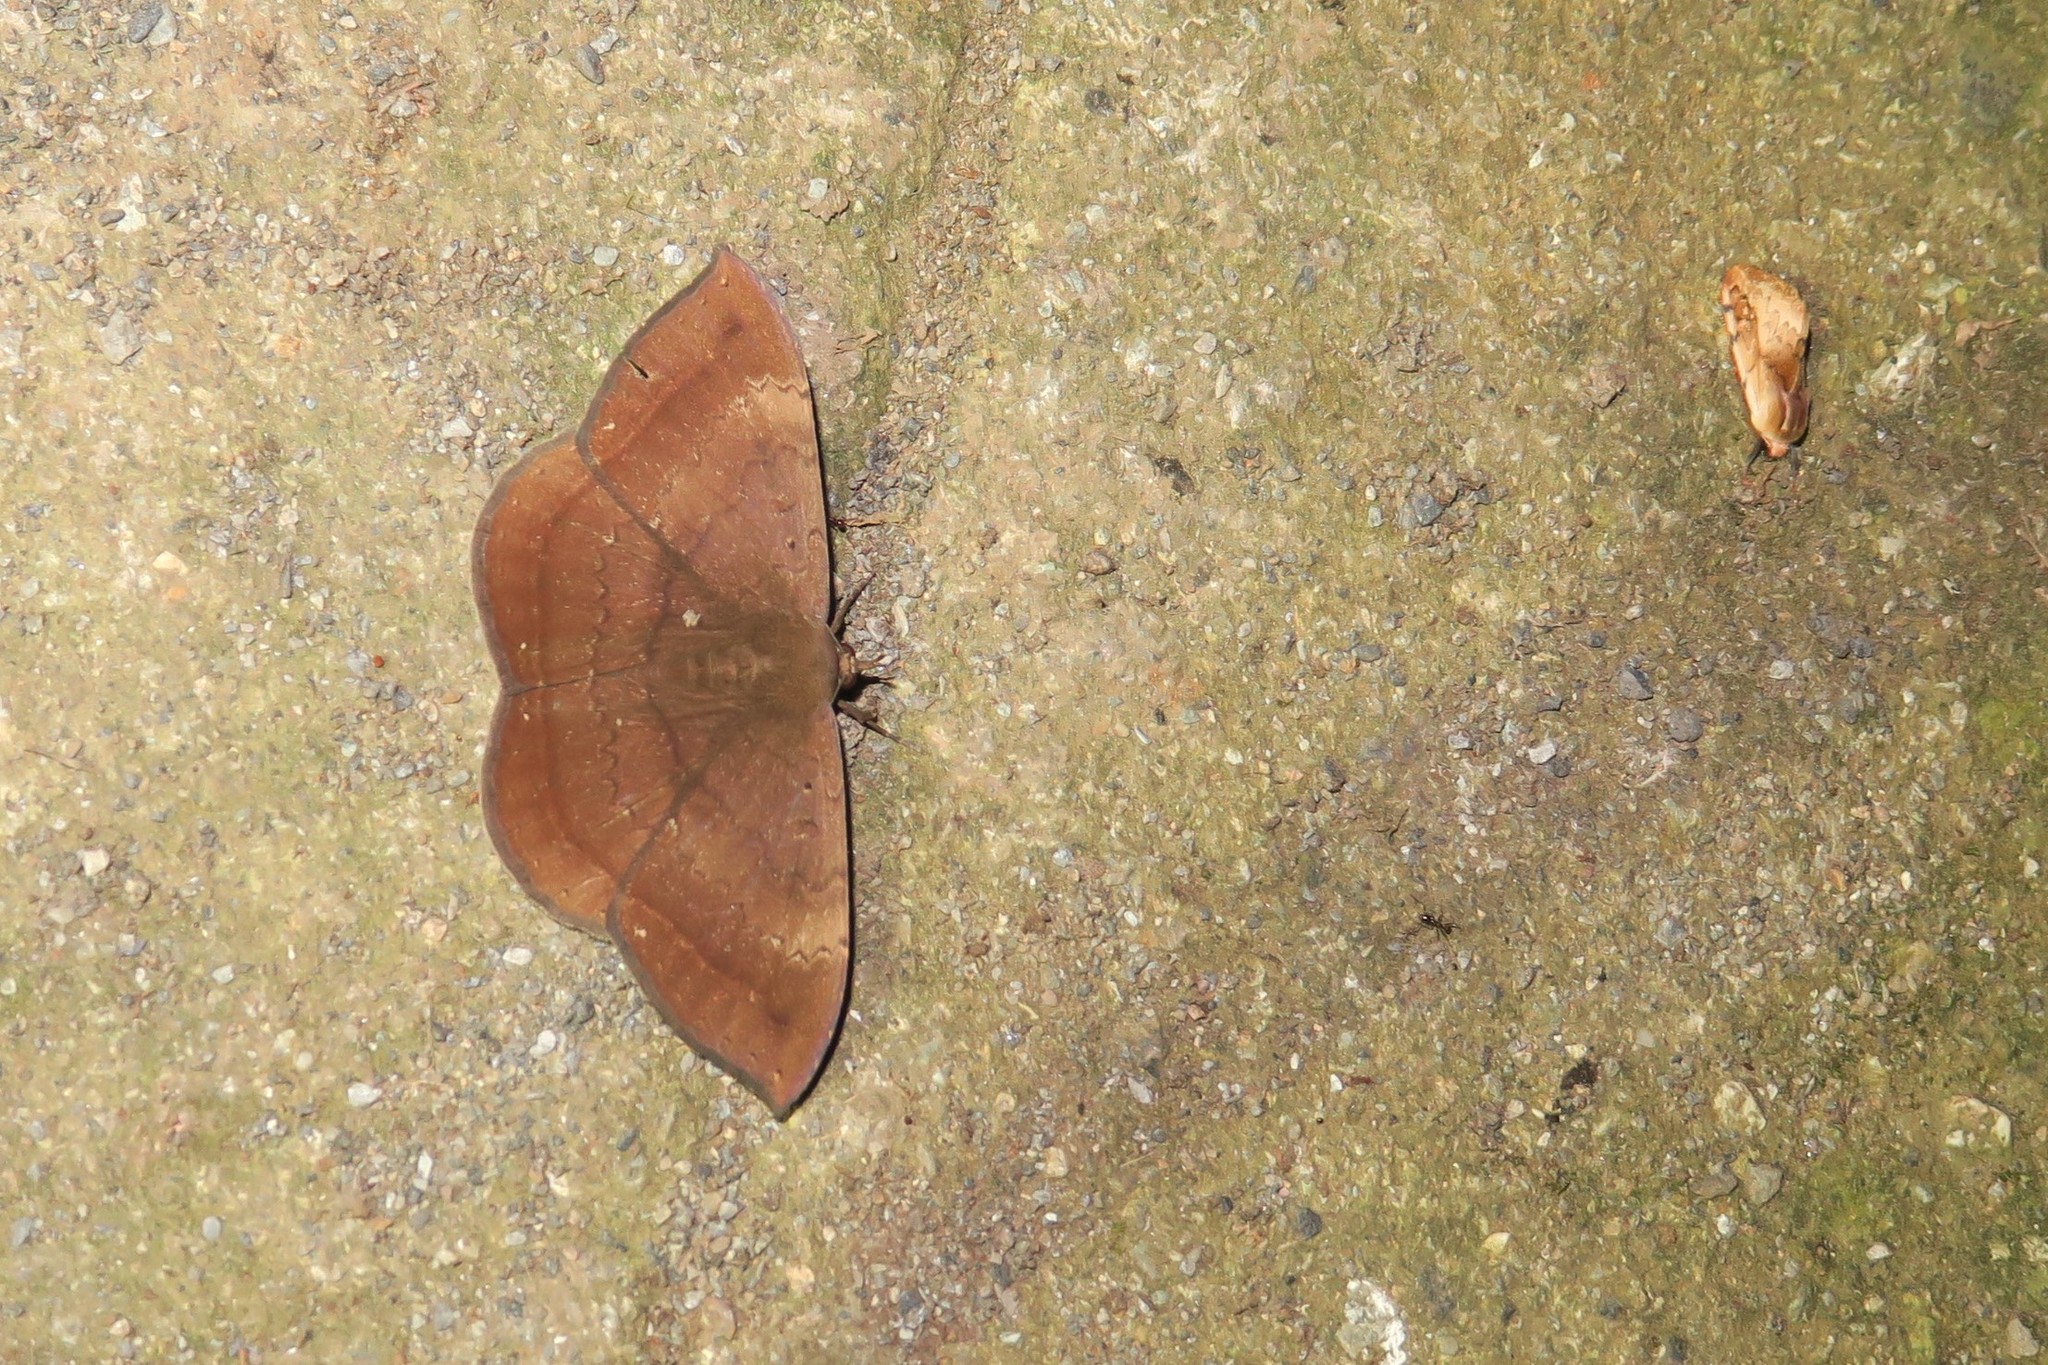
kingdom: Animalia
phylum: Arthropoda
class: Insecta
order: Lepidoptera
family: Erebidae
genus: Hemeroblemma
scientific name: Hemeroblemma scolopacea
